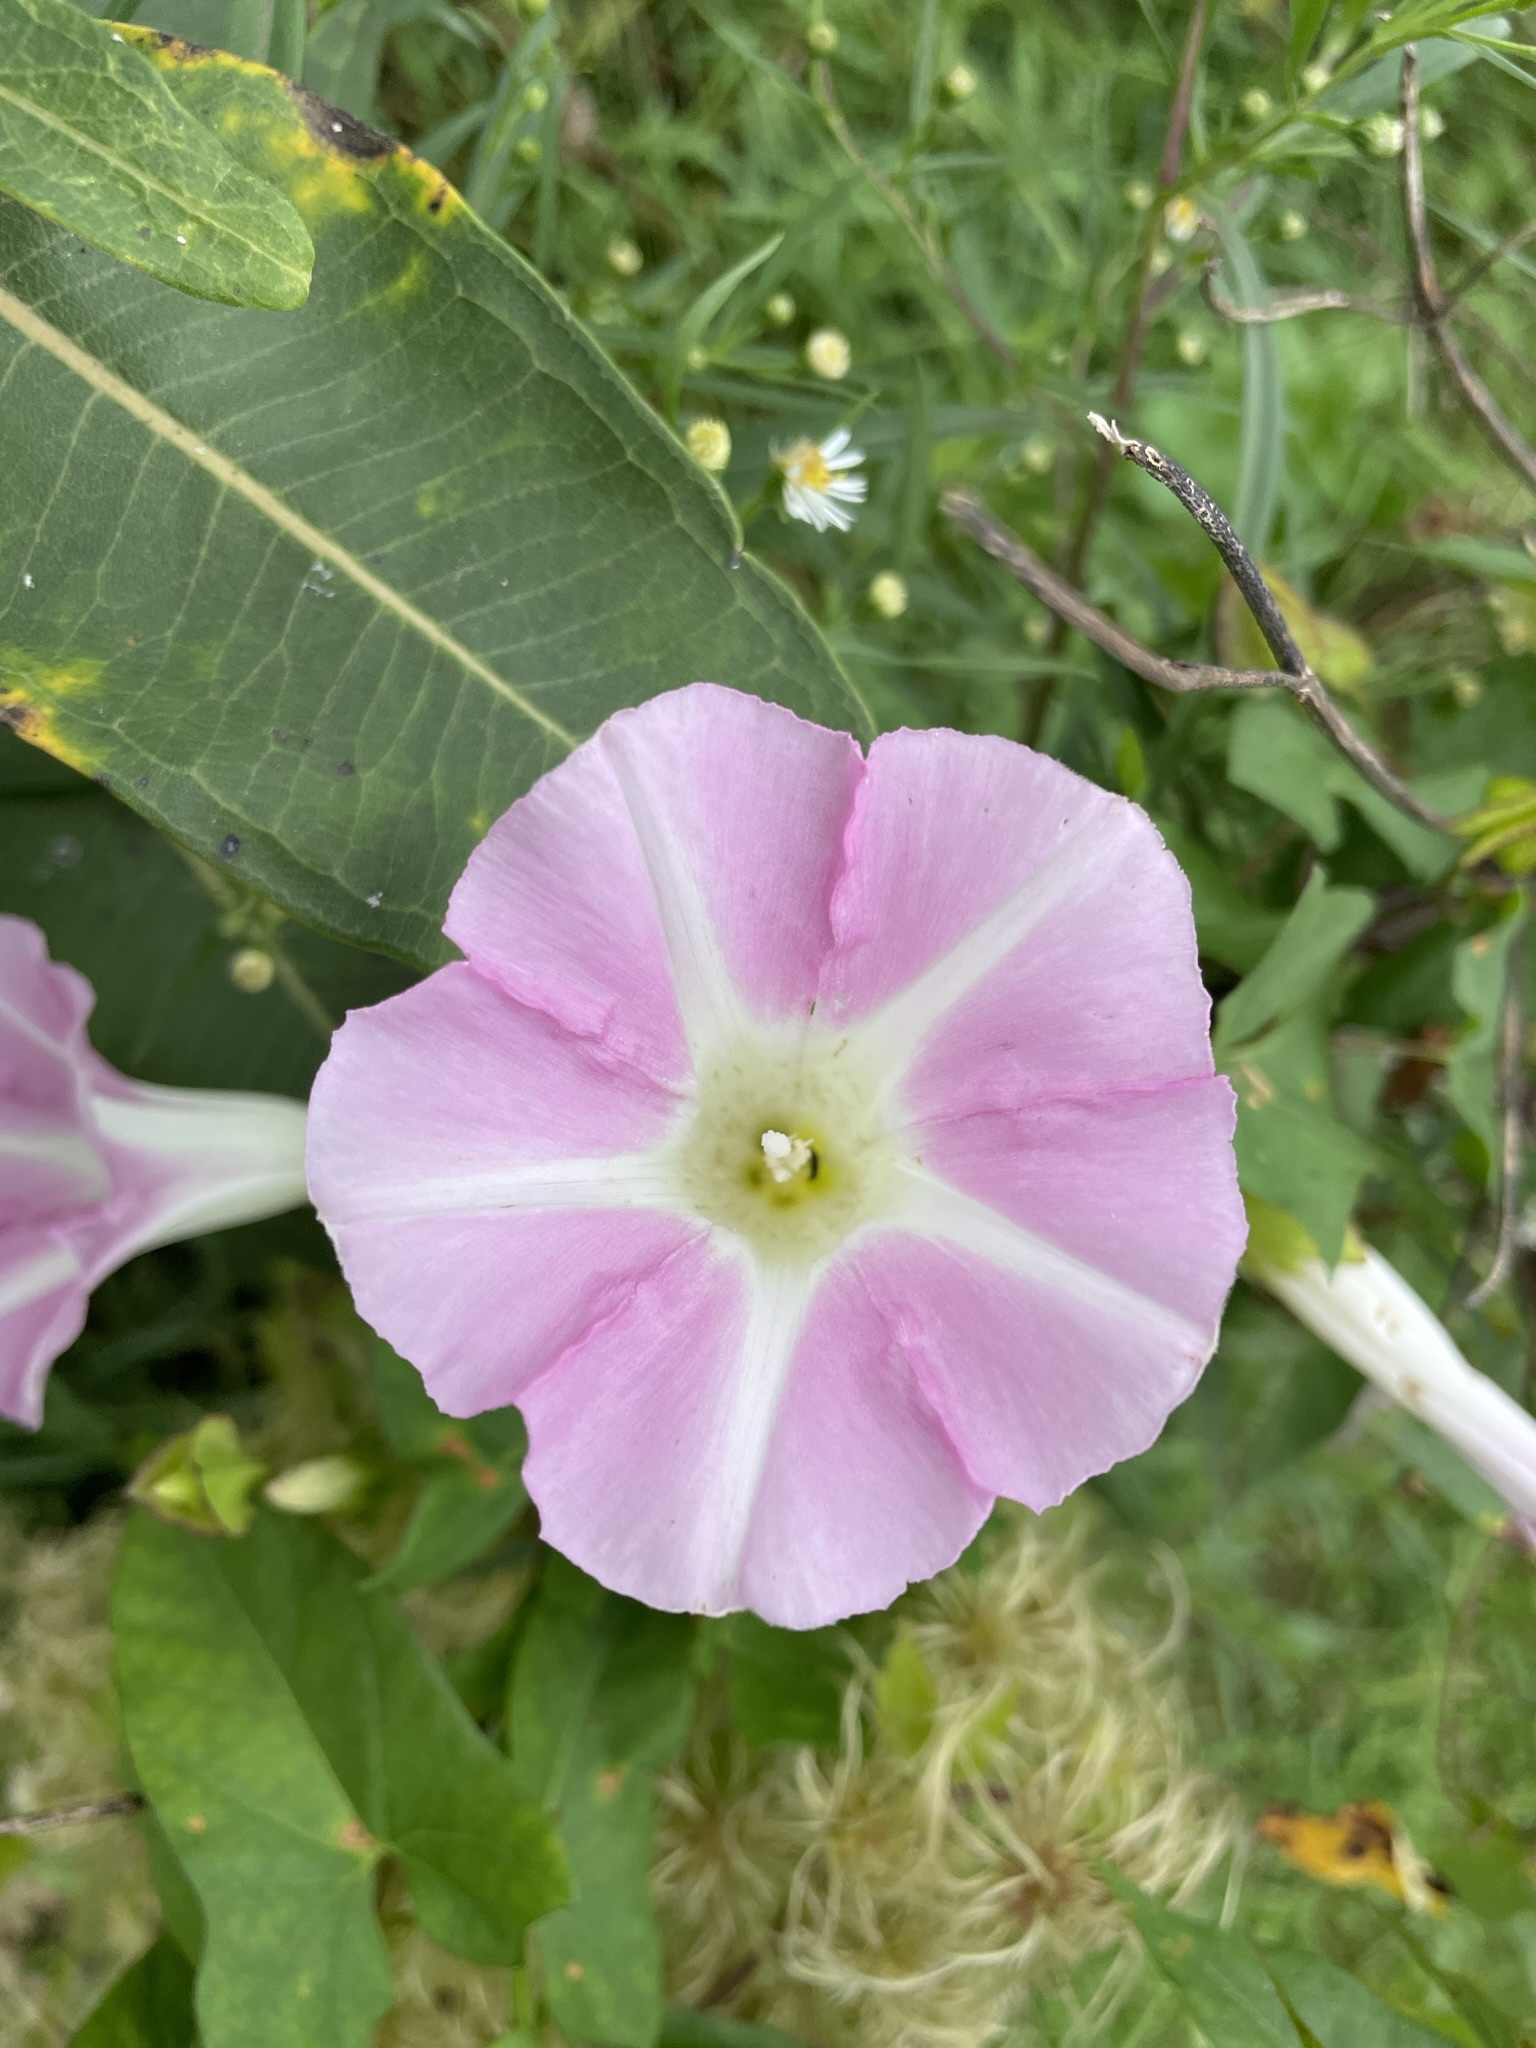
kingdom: Plantae
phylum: Tracheophyta
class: Magnoliopsida
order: Solanales
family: Convolvulaceae
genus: Calystegia
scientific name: Calystegia sepium
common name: Hedge bindweed
